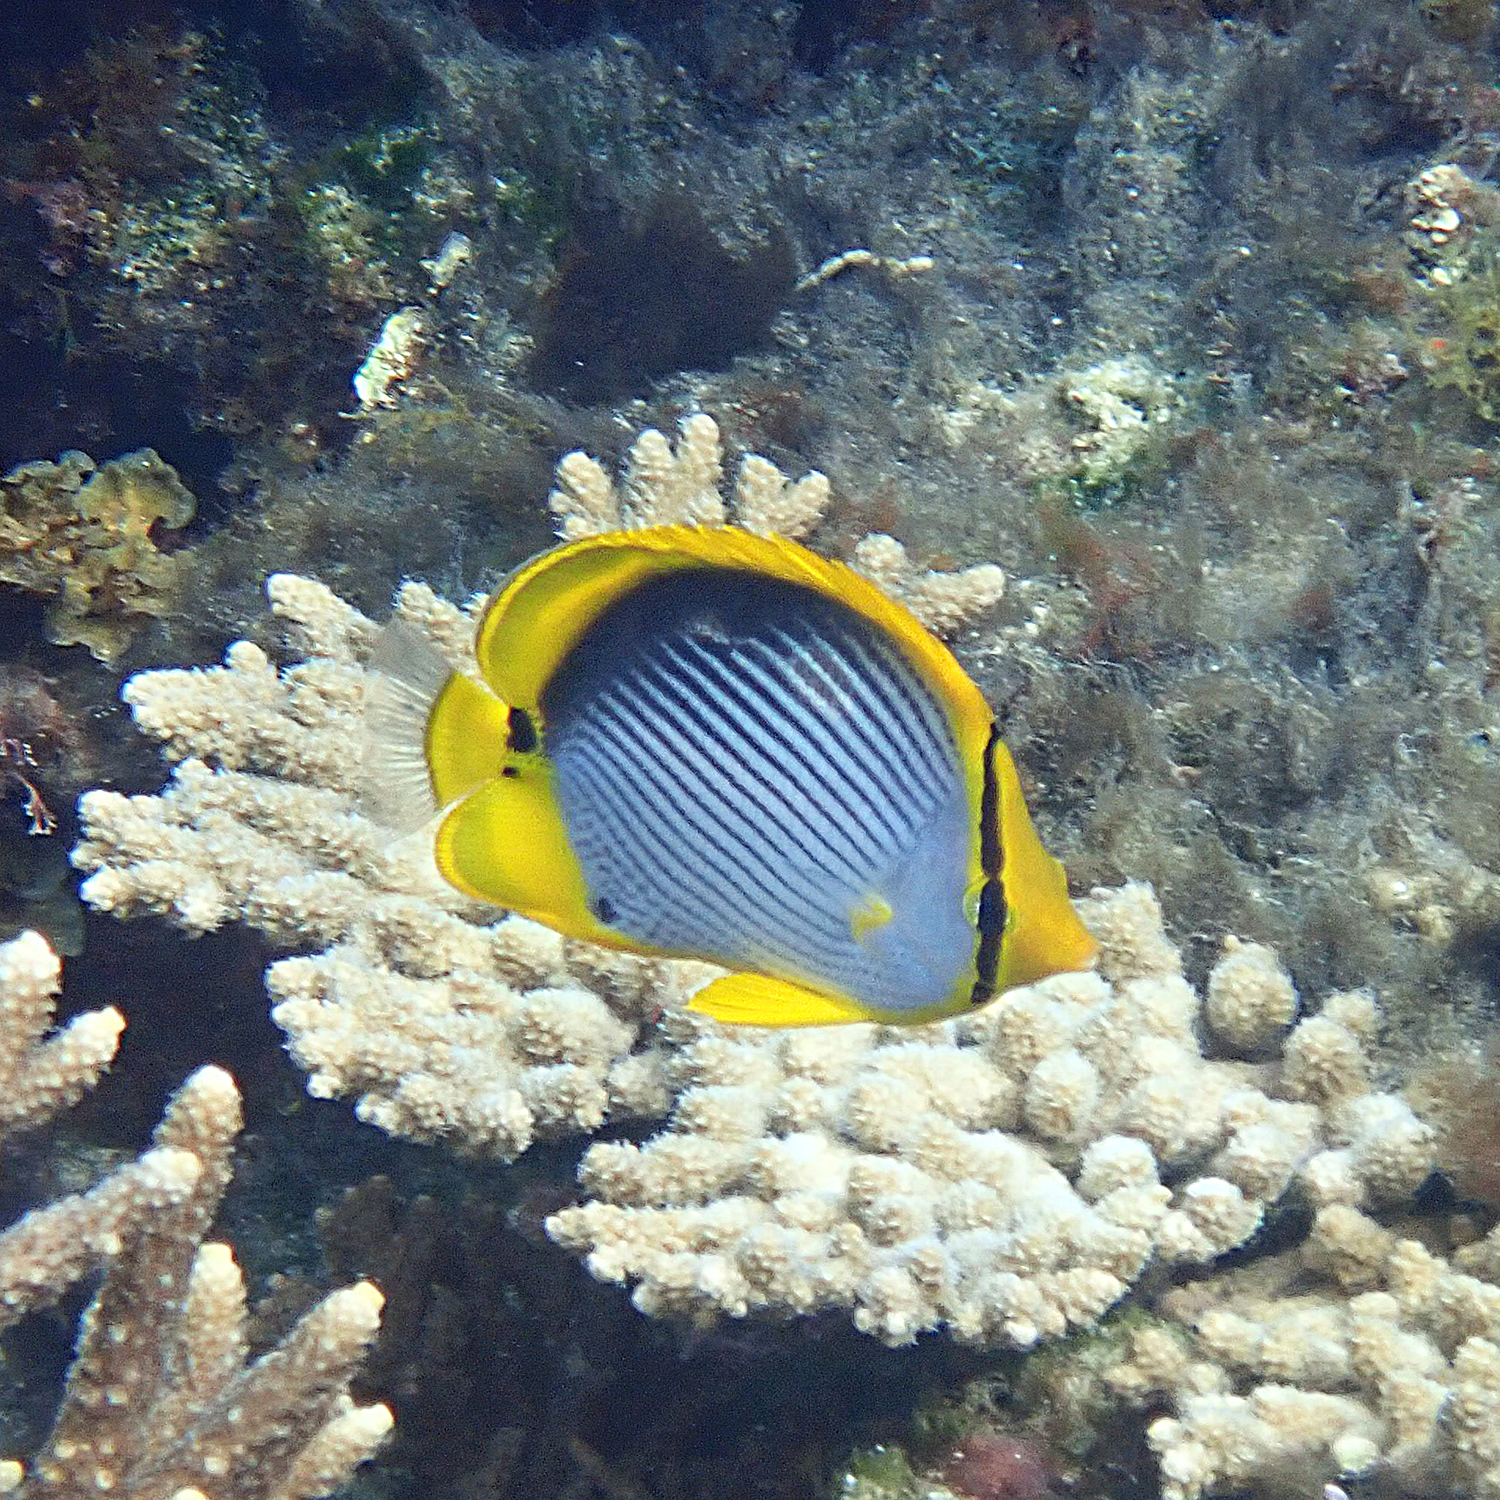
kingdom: Animalia
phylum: Chordata
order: Perciformes
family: Chaetodontidae
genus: Chaetodon
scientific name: Chaetodon melannotus
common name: Blackback butterflyfish
